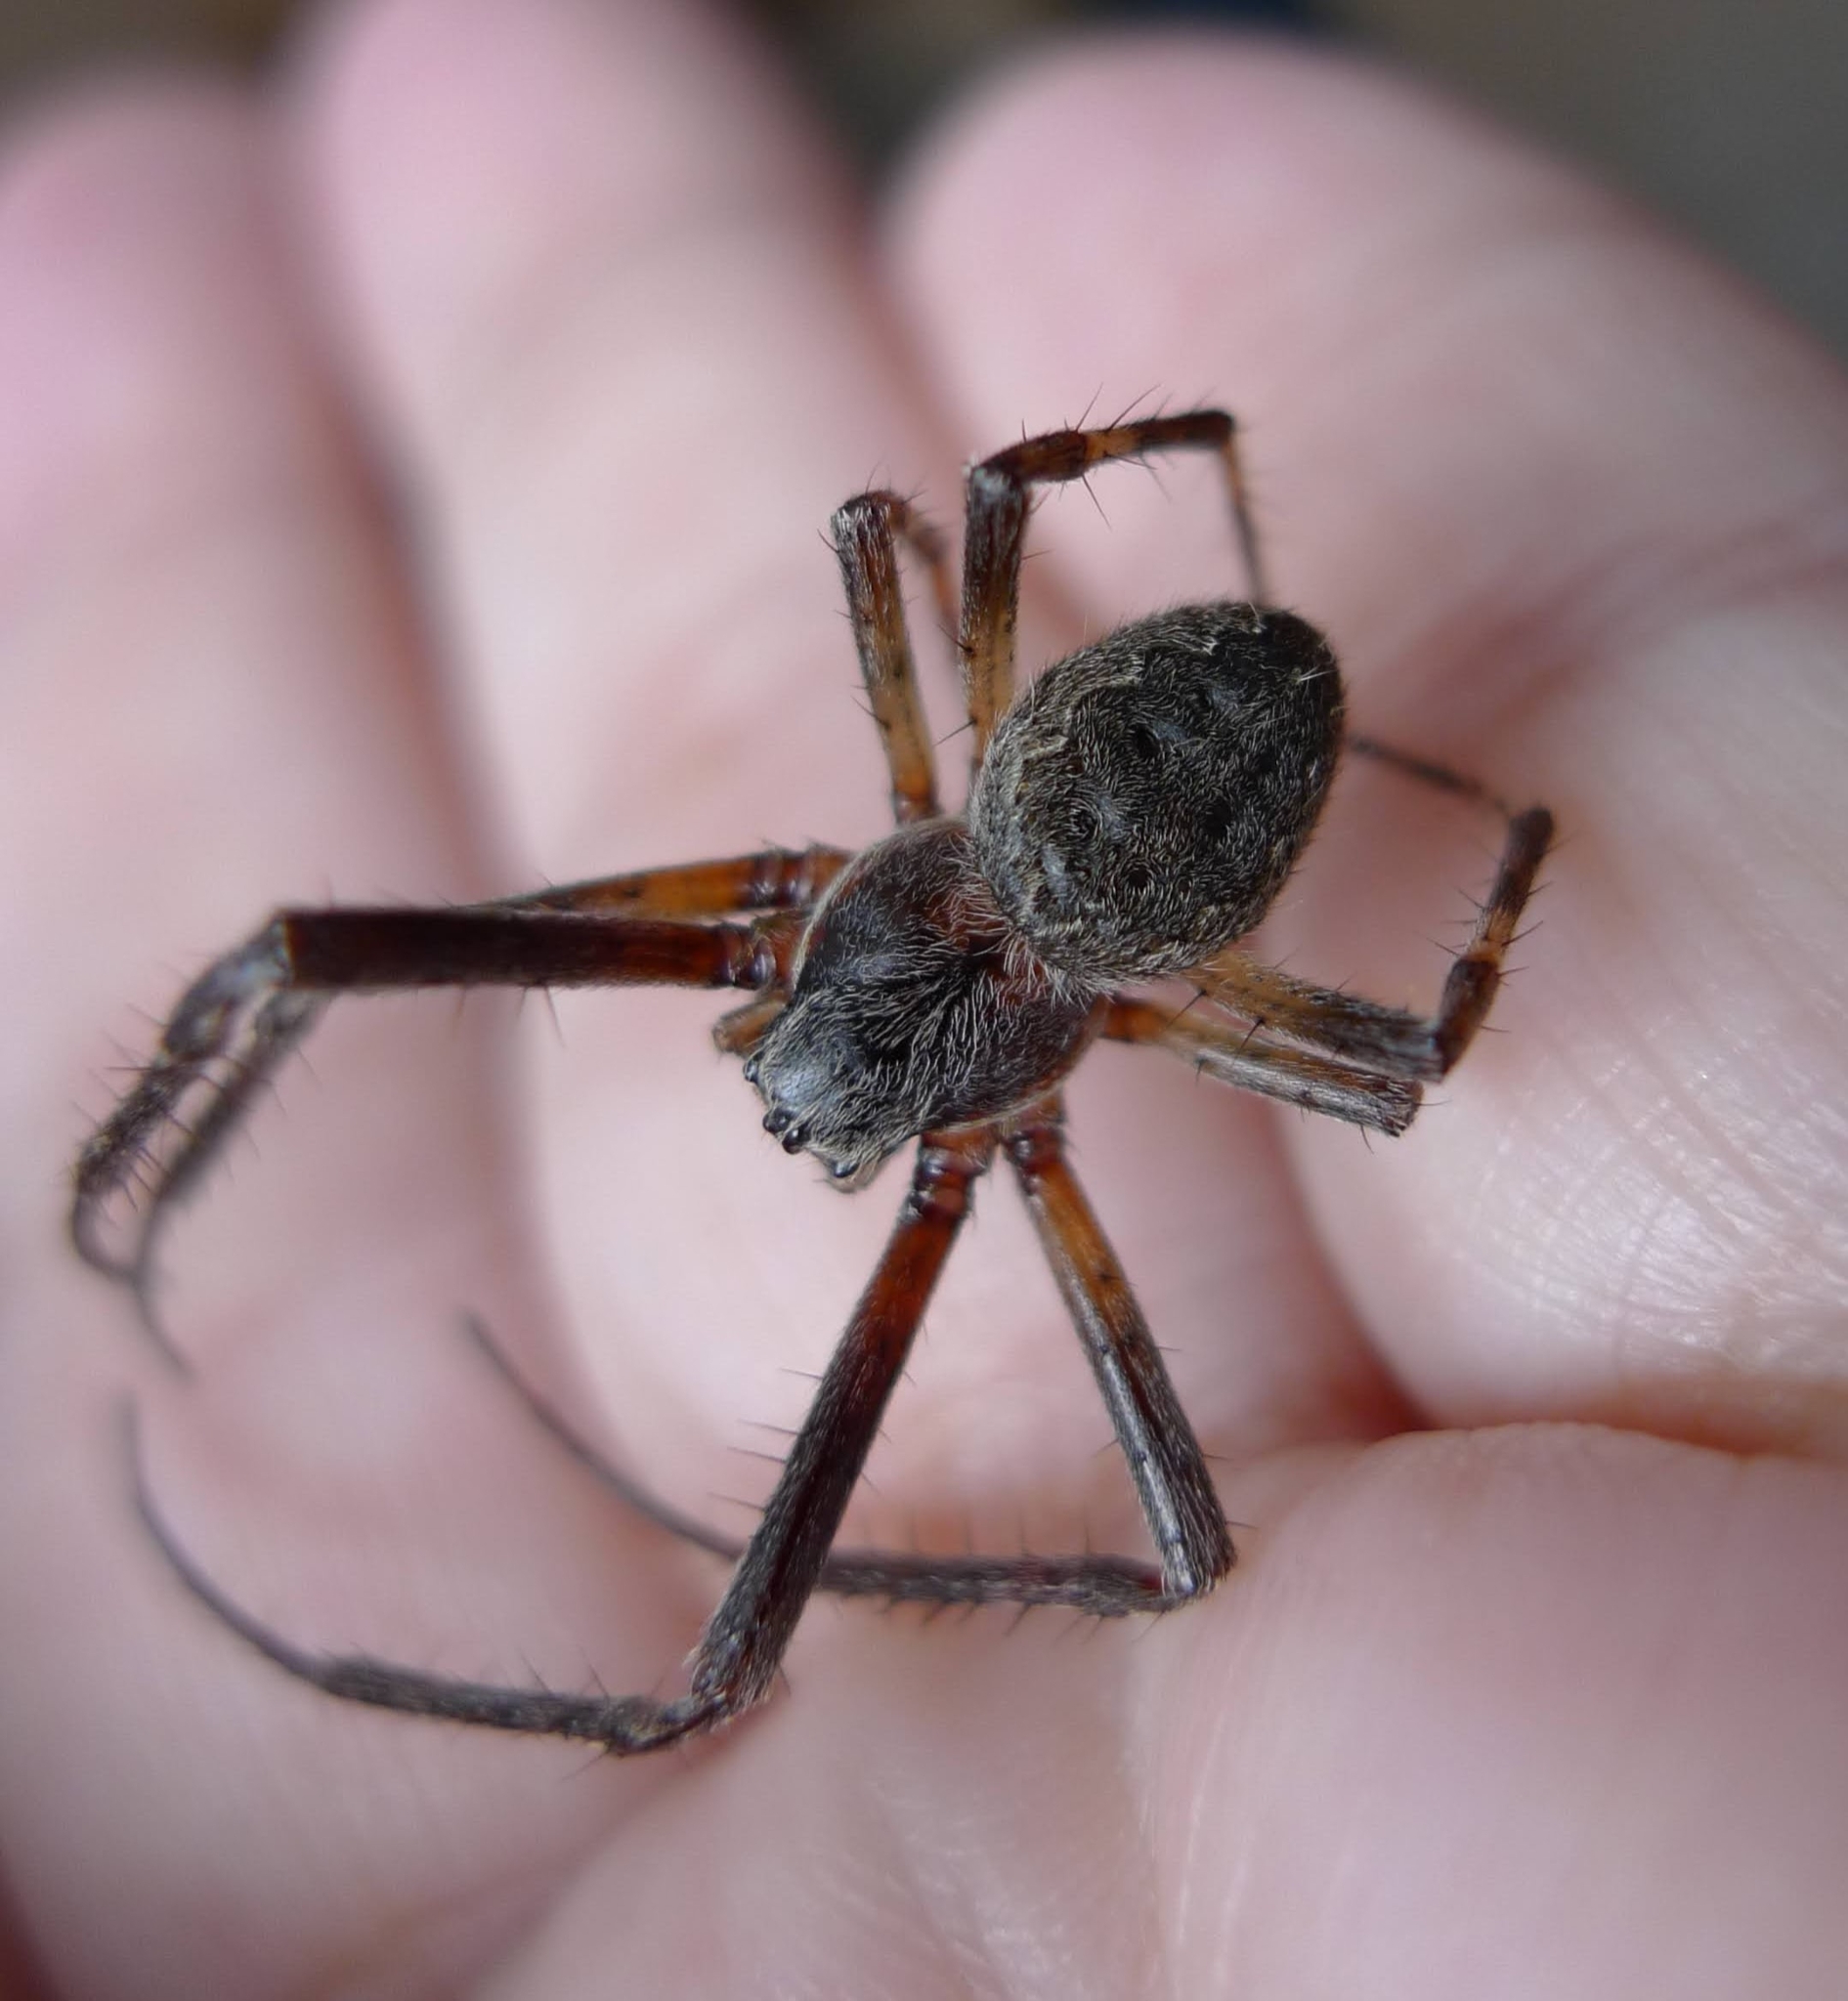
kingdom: Animalia
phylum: Arthropoda
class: Arachnida
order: Araneae
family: Araneidae
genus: Larinioides
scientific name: Larinioides ixobolus
